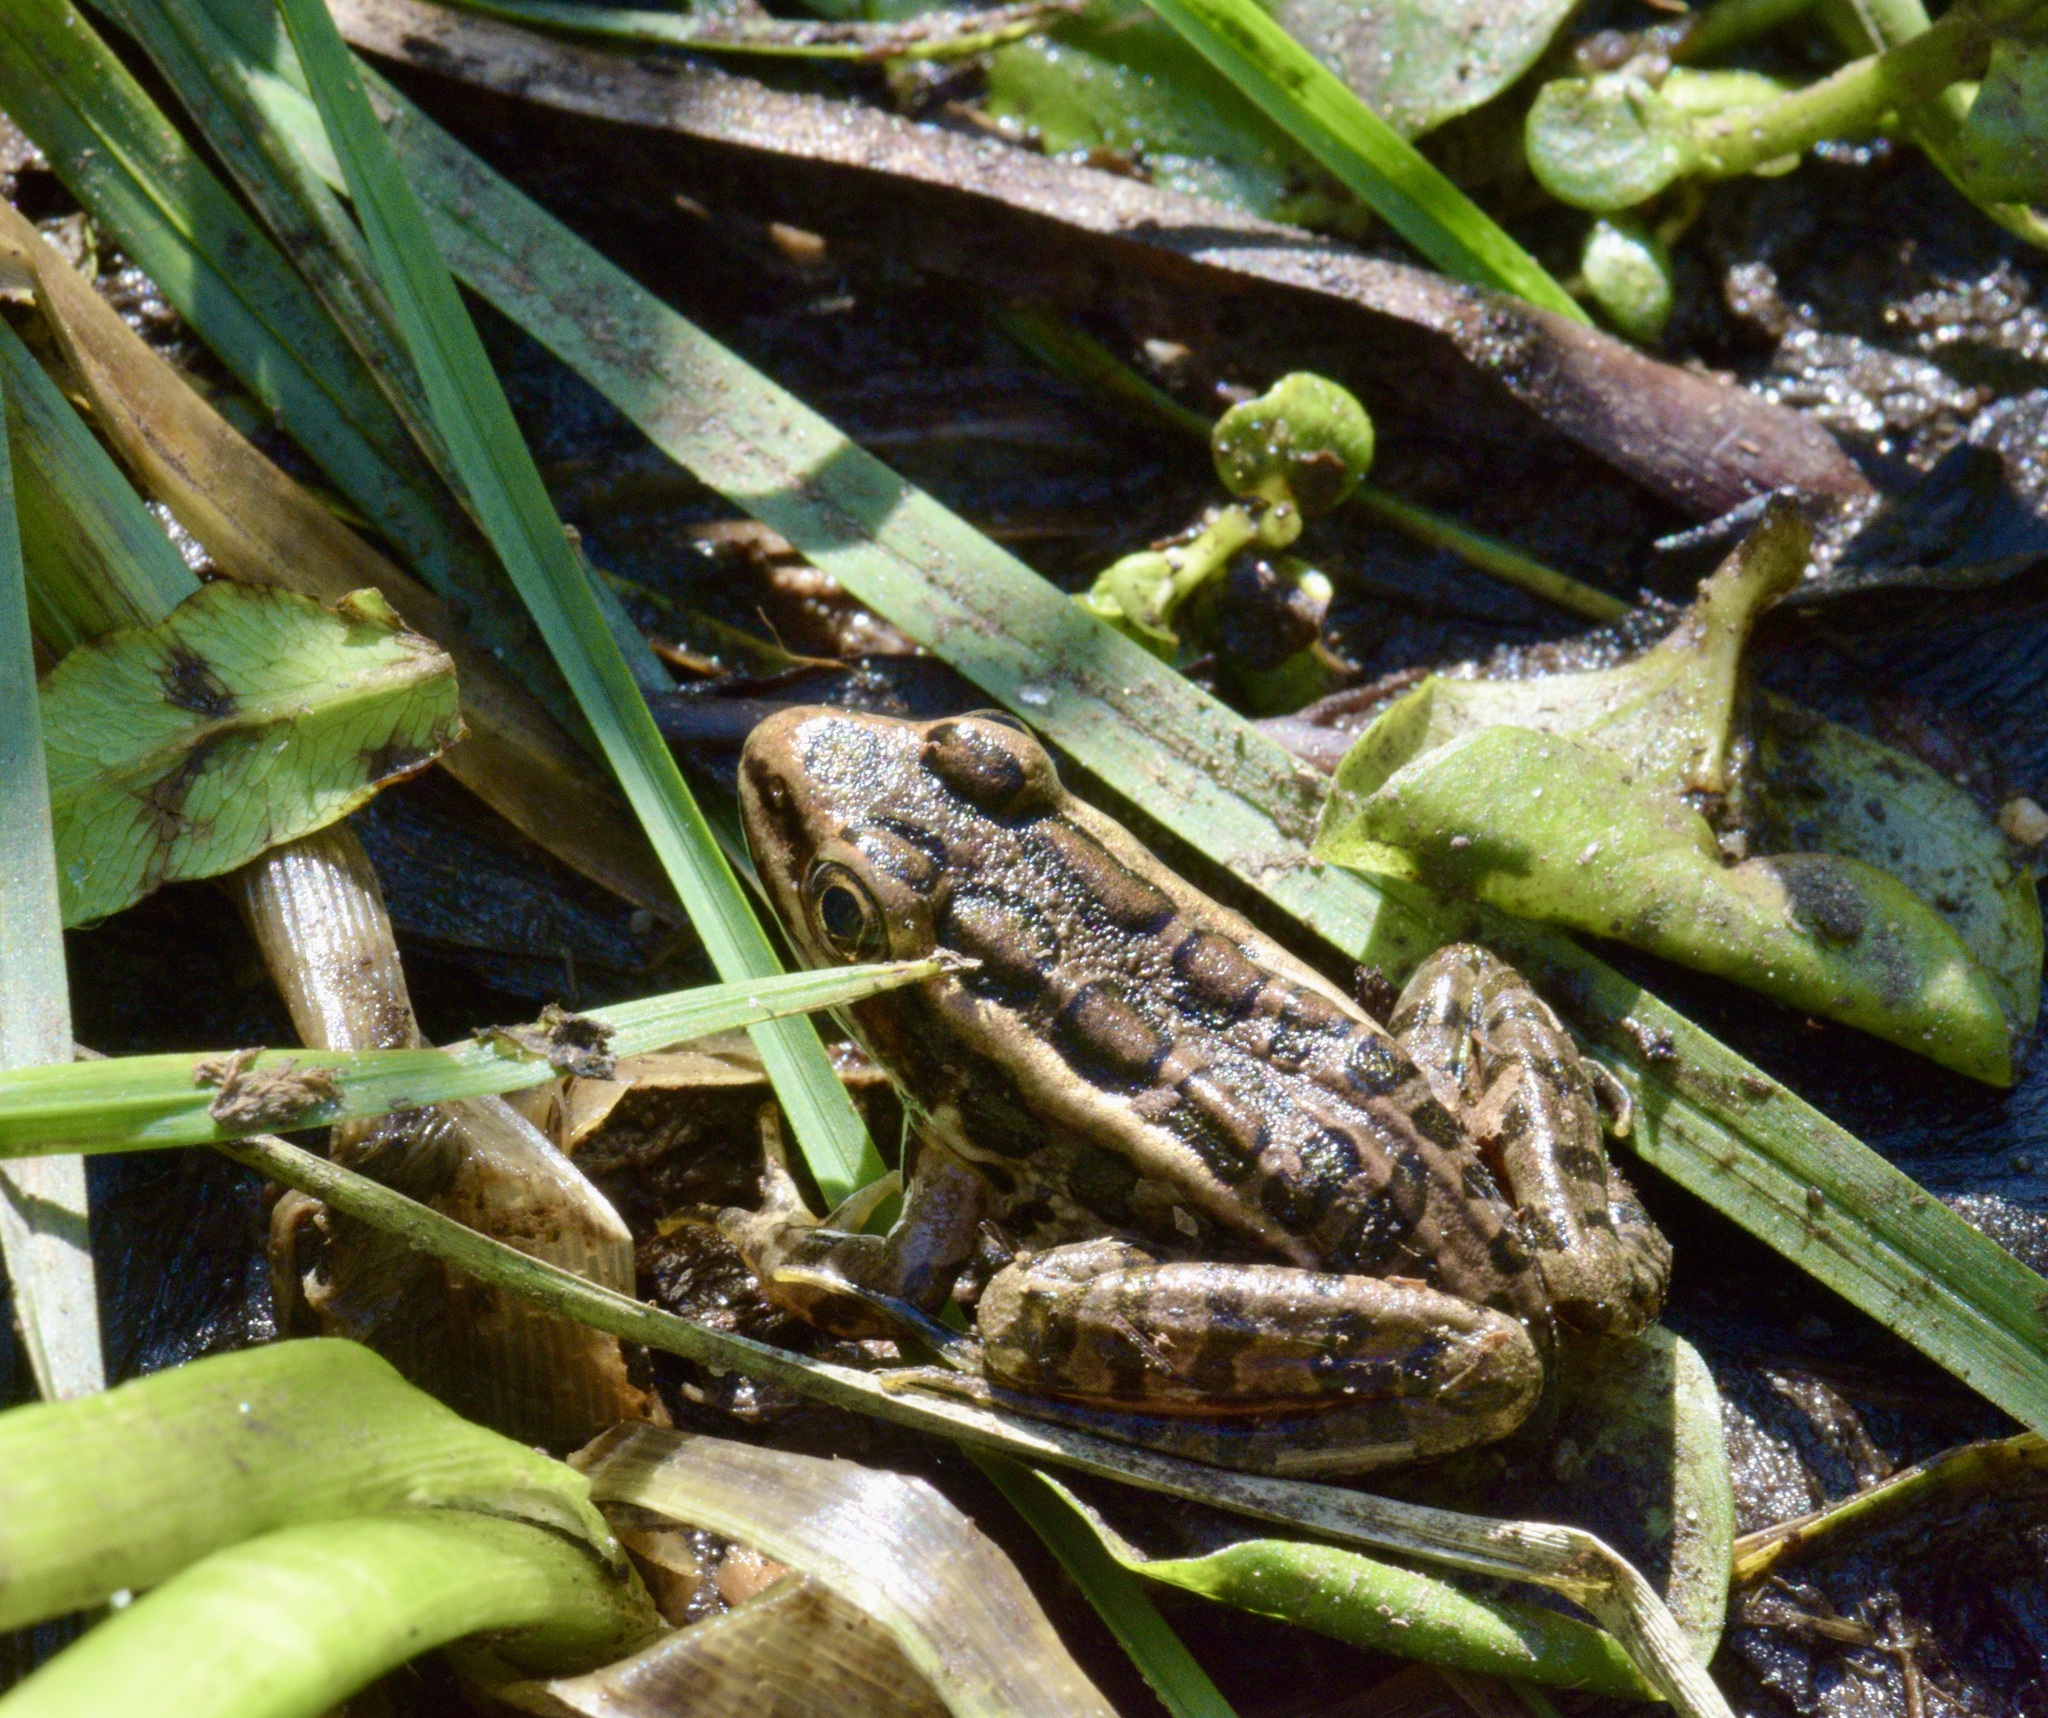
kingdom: Animalia
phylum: Chordata
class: Amphibia
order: Anura
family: Ranidae
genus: Lithobates
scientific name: Lithobates palustris
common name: Pickerel frog
